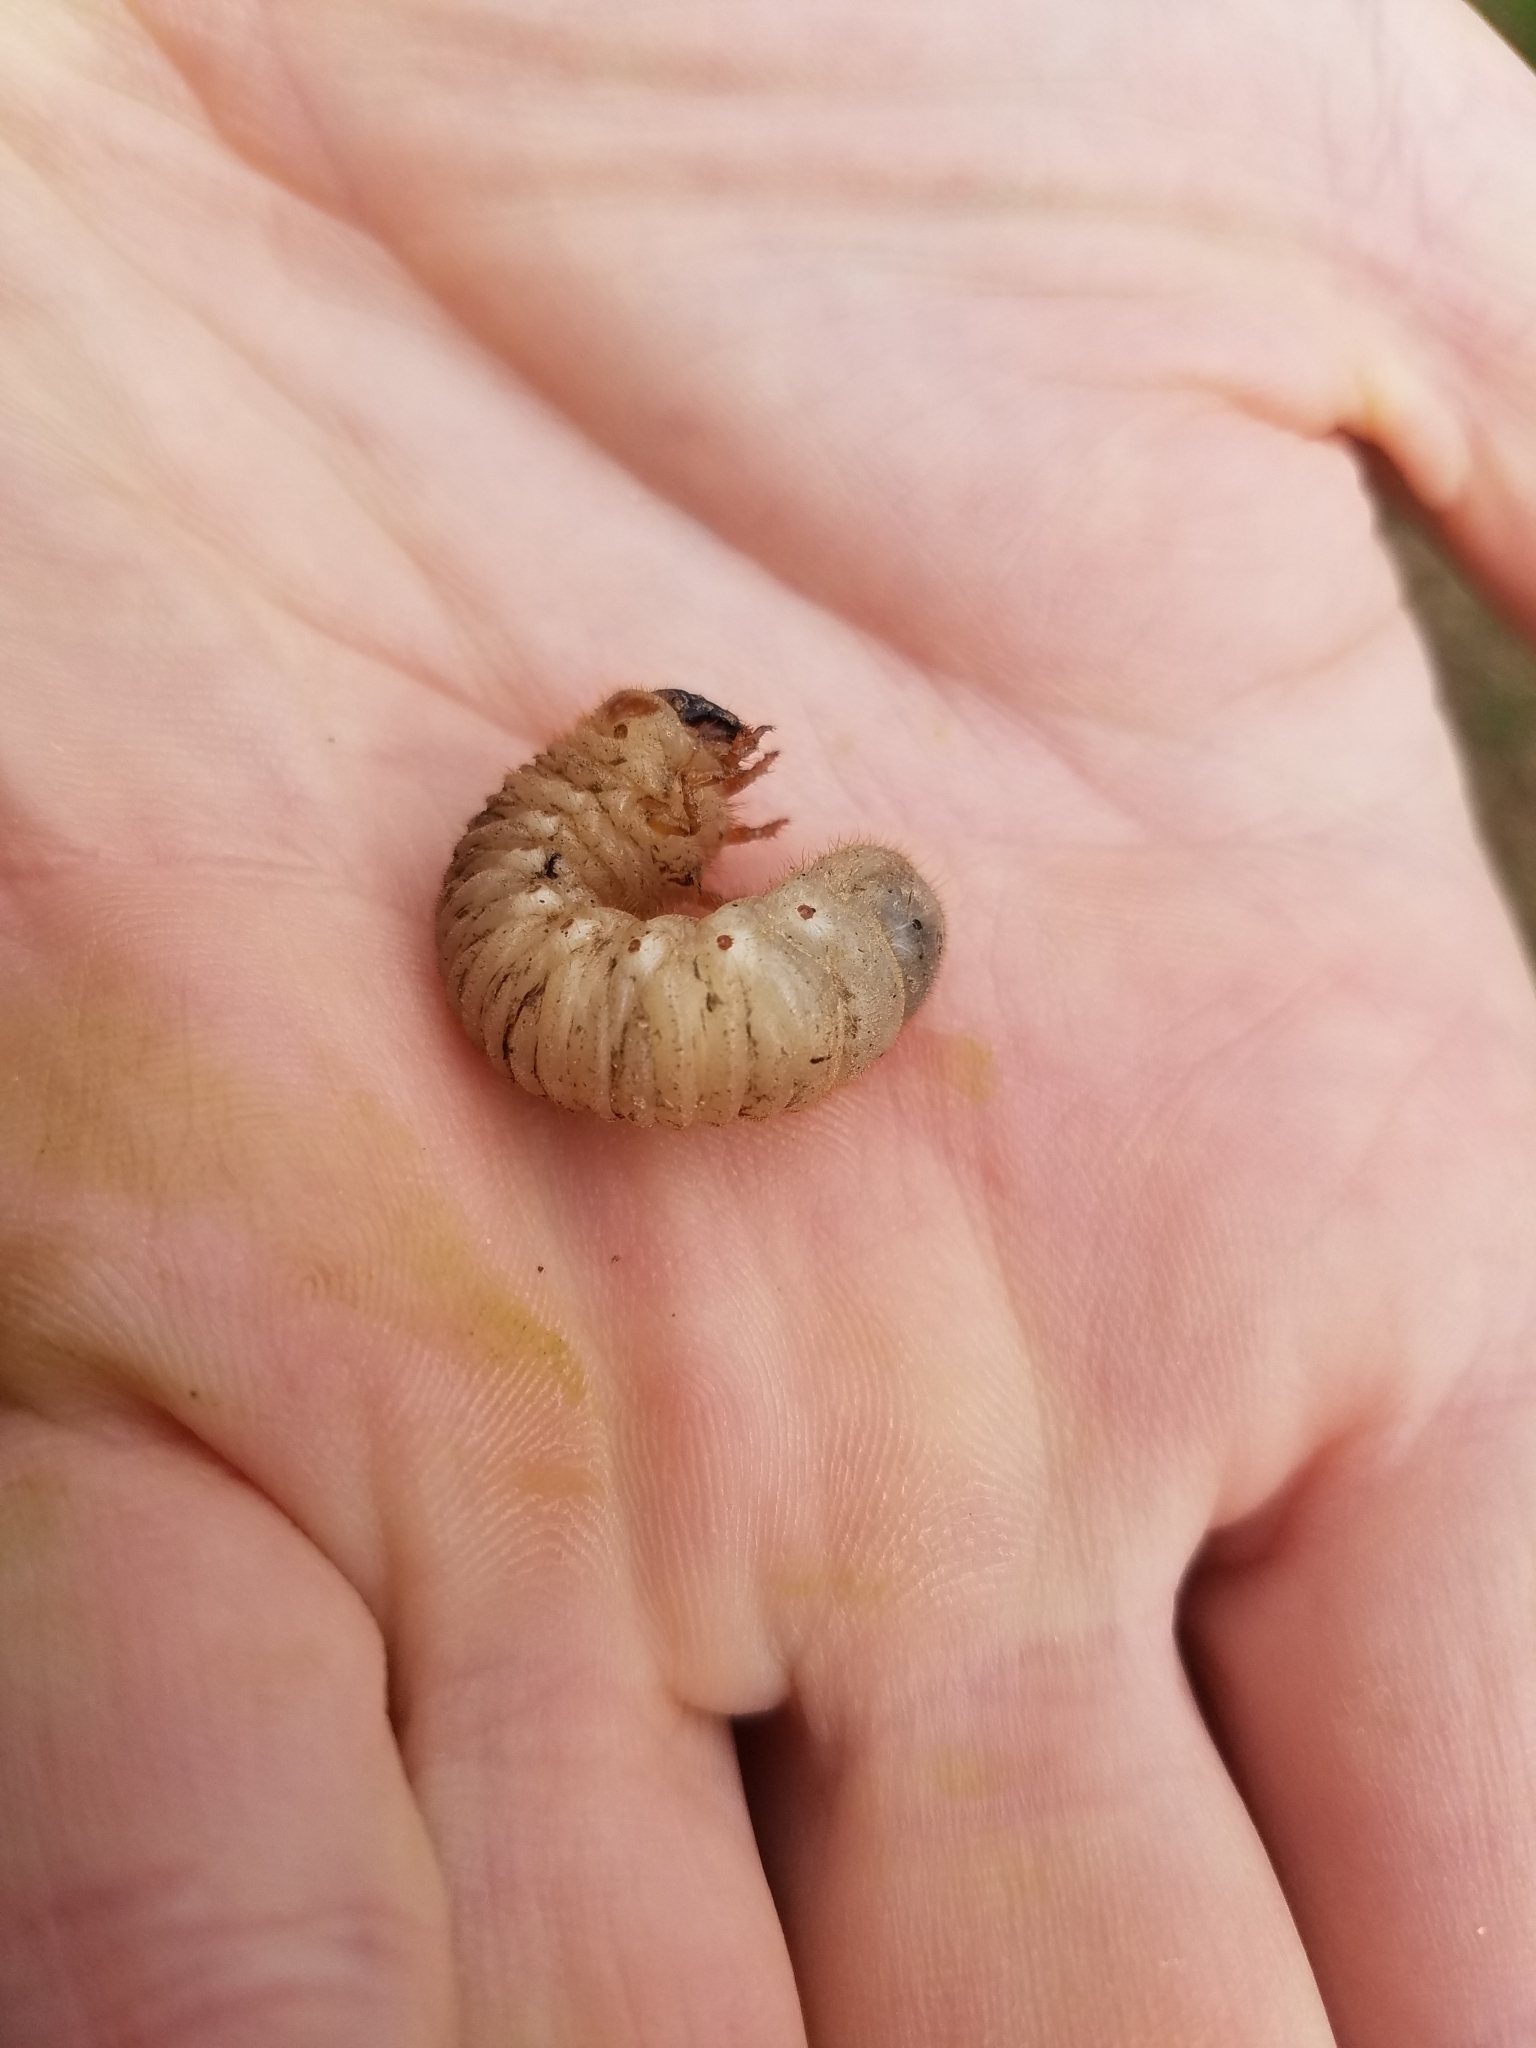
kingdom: Animalia
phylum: Arthropoda
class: Insecta
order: Coleoptera
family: Scarabaeidae
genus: Cotinis
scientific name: Cotinis nitida
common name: Common green june beetle
